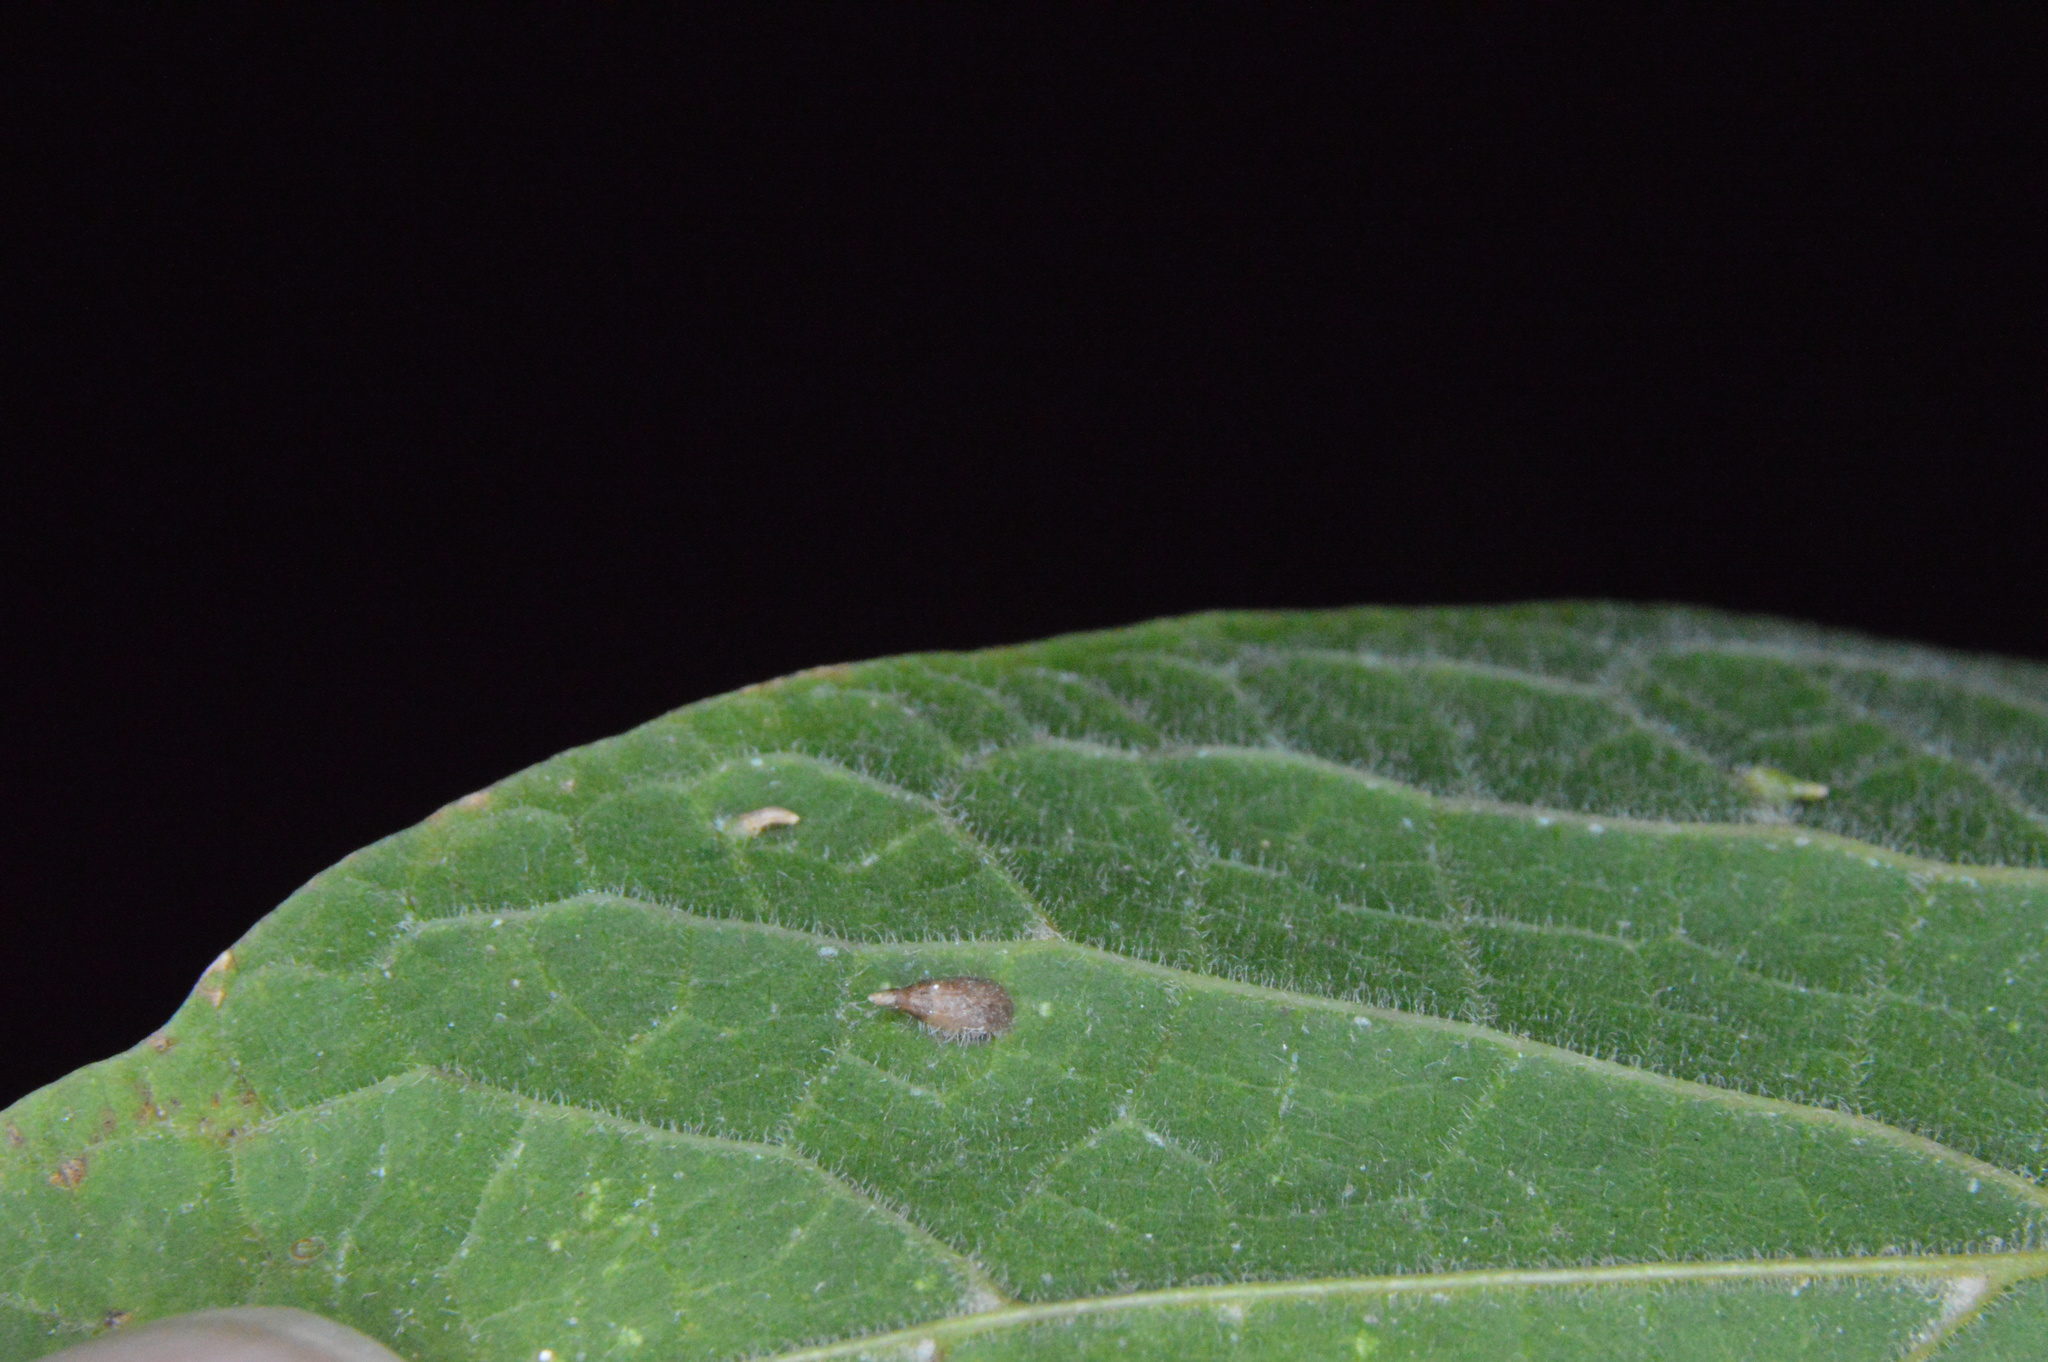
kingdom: Animalia
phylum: Arthropoda
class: Insecta
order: Diptera
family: Cecidomyiidae
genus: Celticecis
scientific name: Celticecis supina
